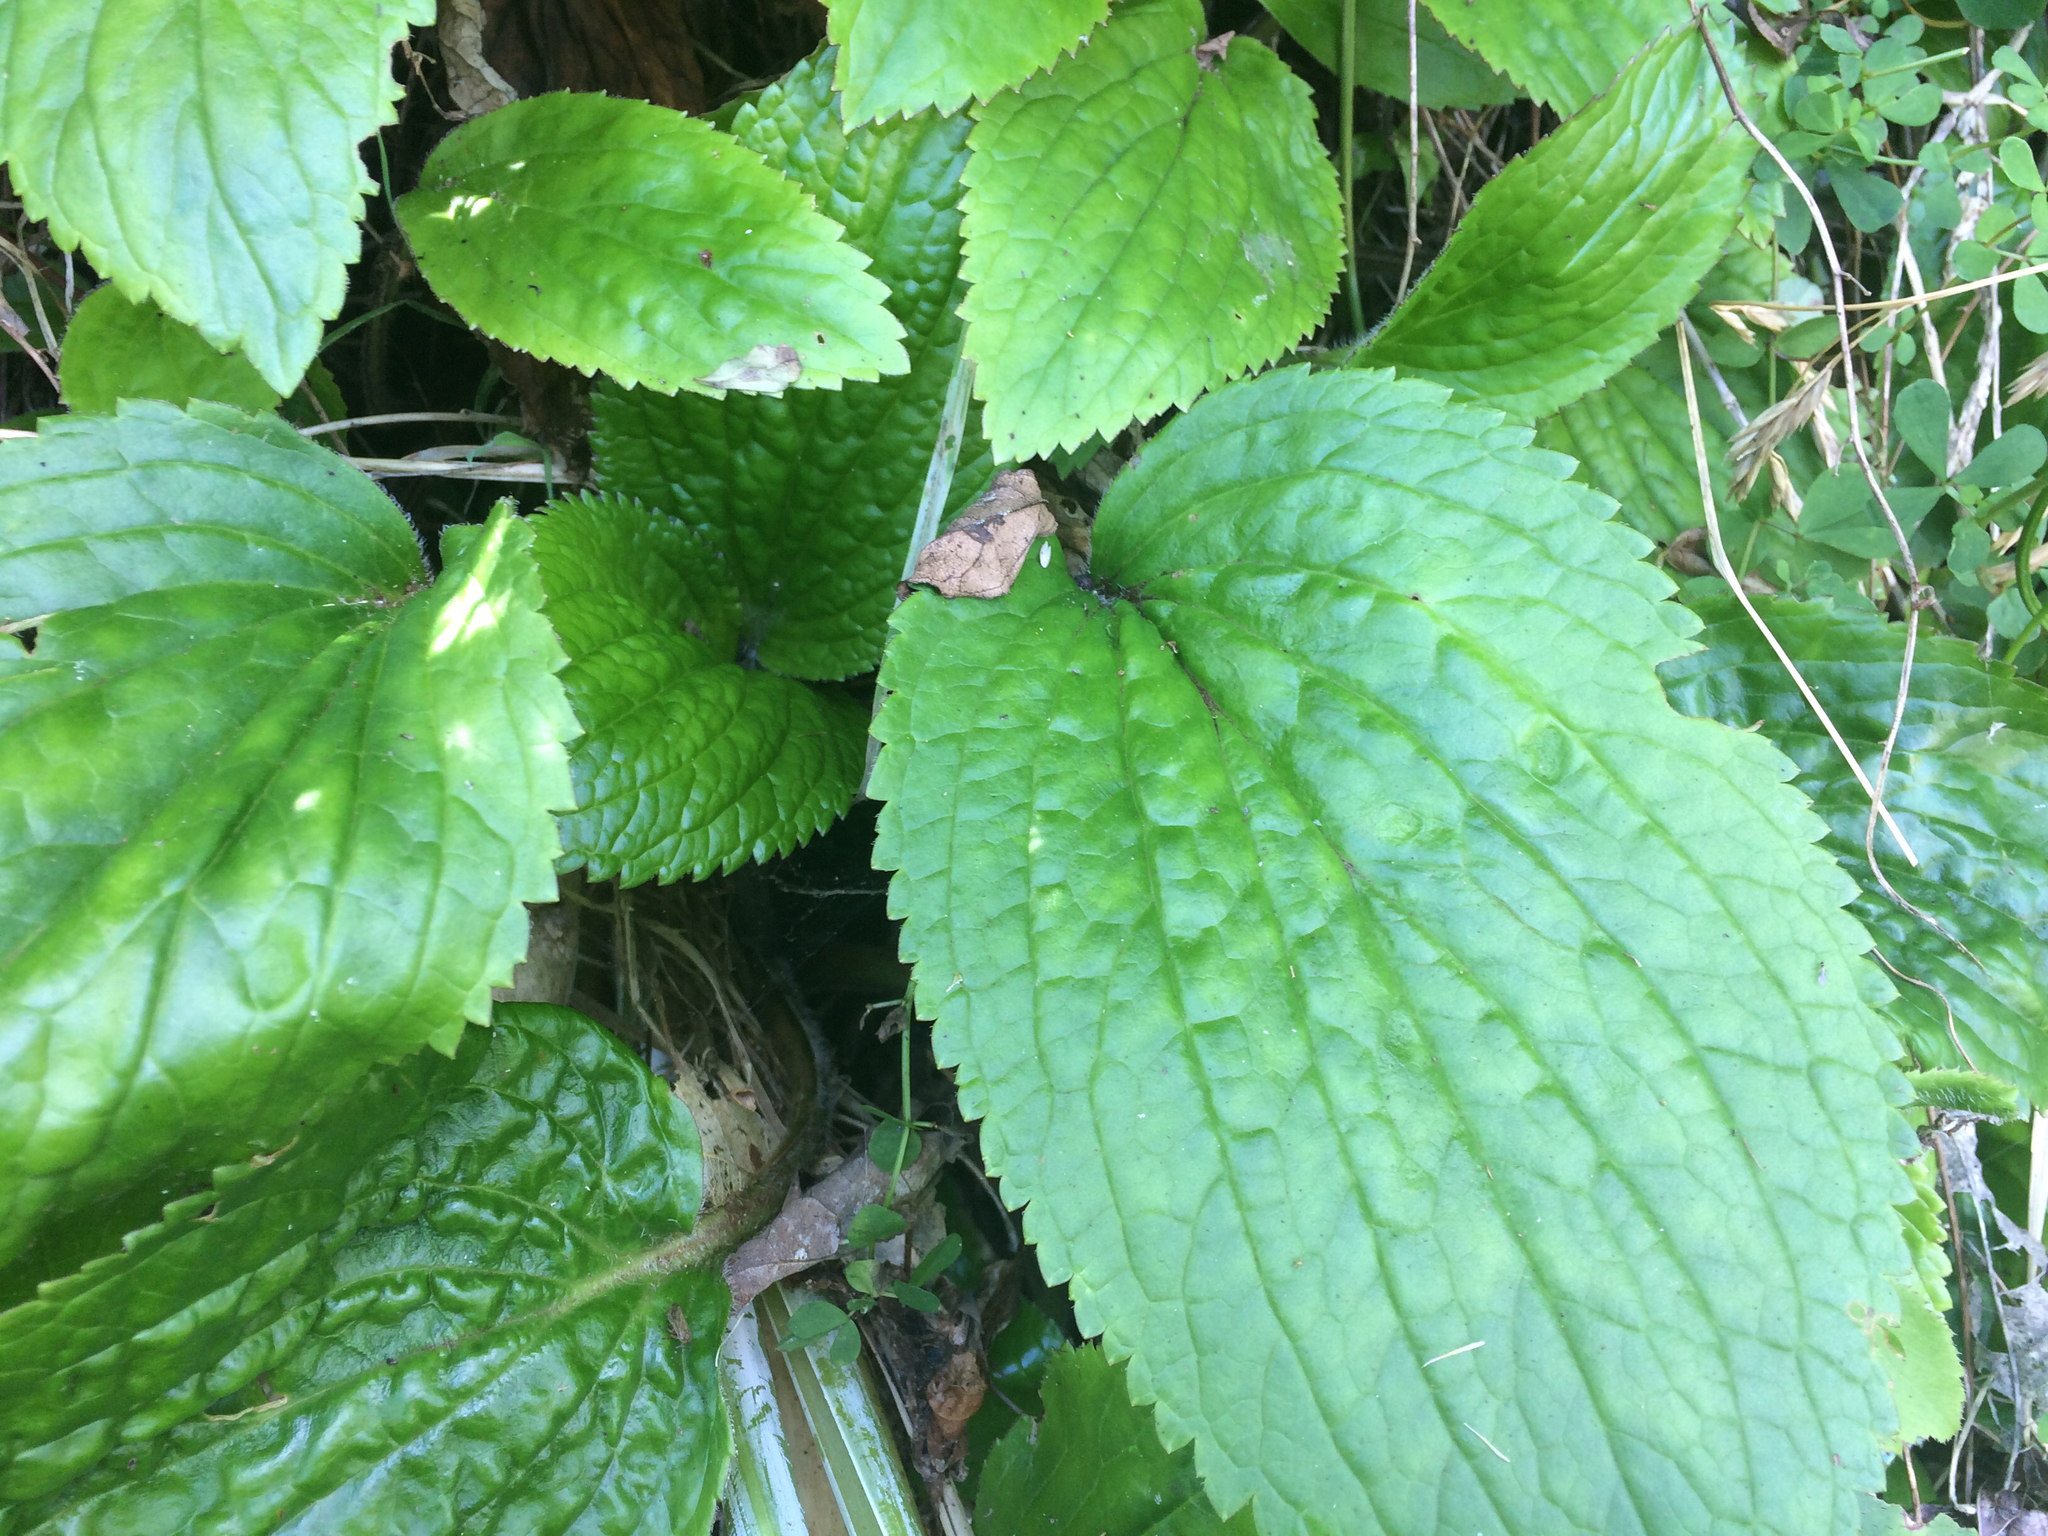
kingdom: Plantae
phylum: Tracheophyta
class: Magnoliopsida
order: Lamiales
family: Plantaginaceae
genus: Ourisia
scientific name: Ourisia macrophylla
